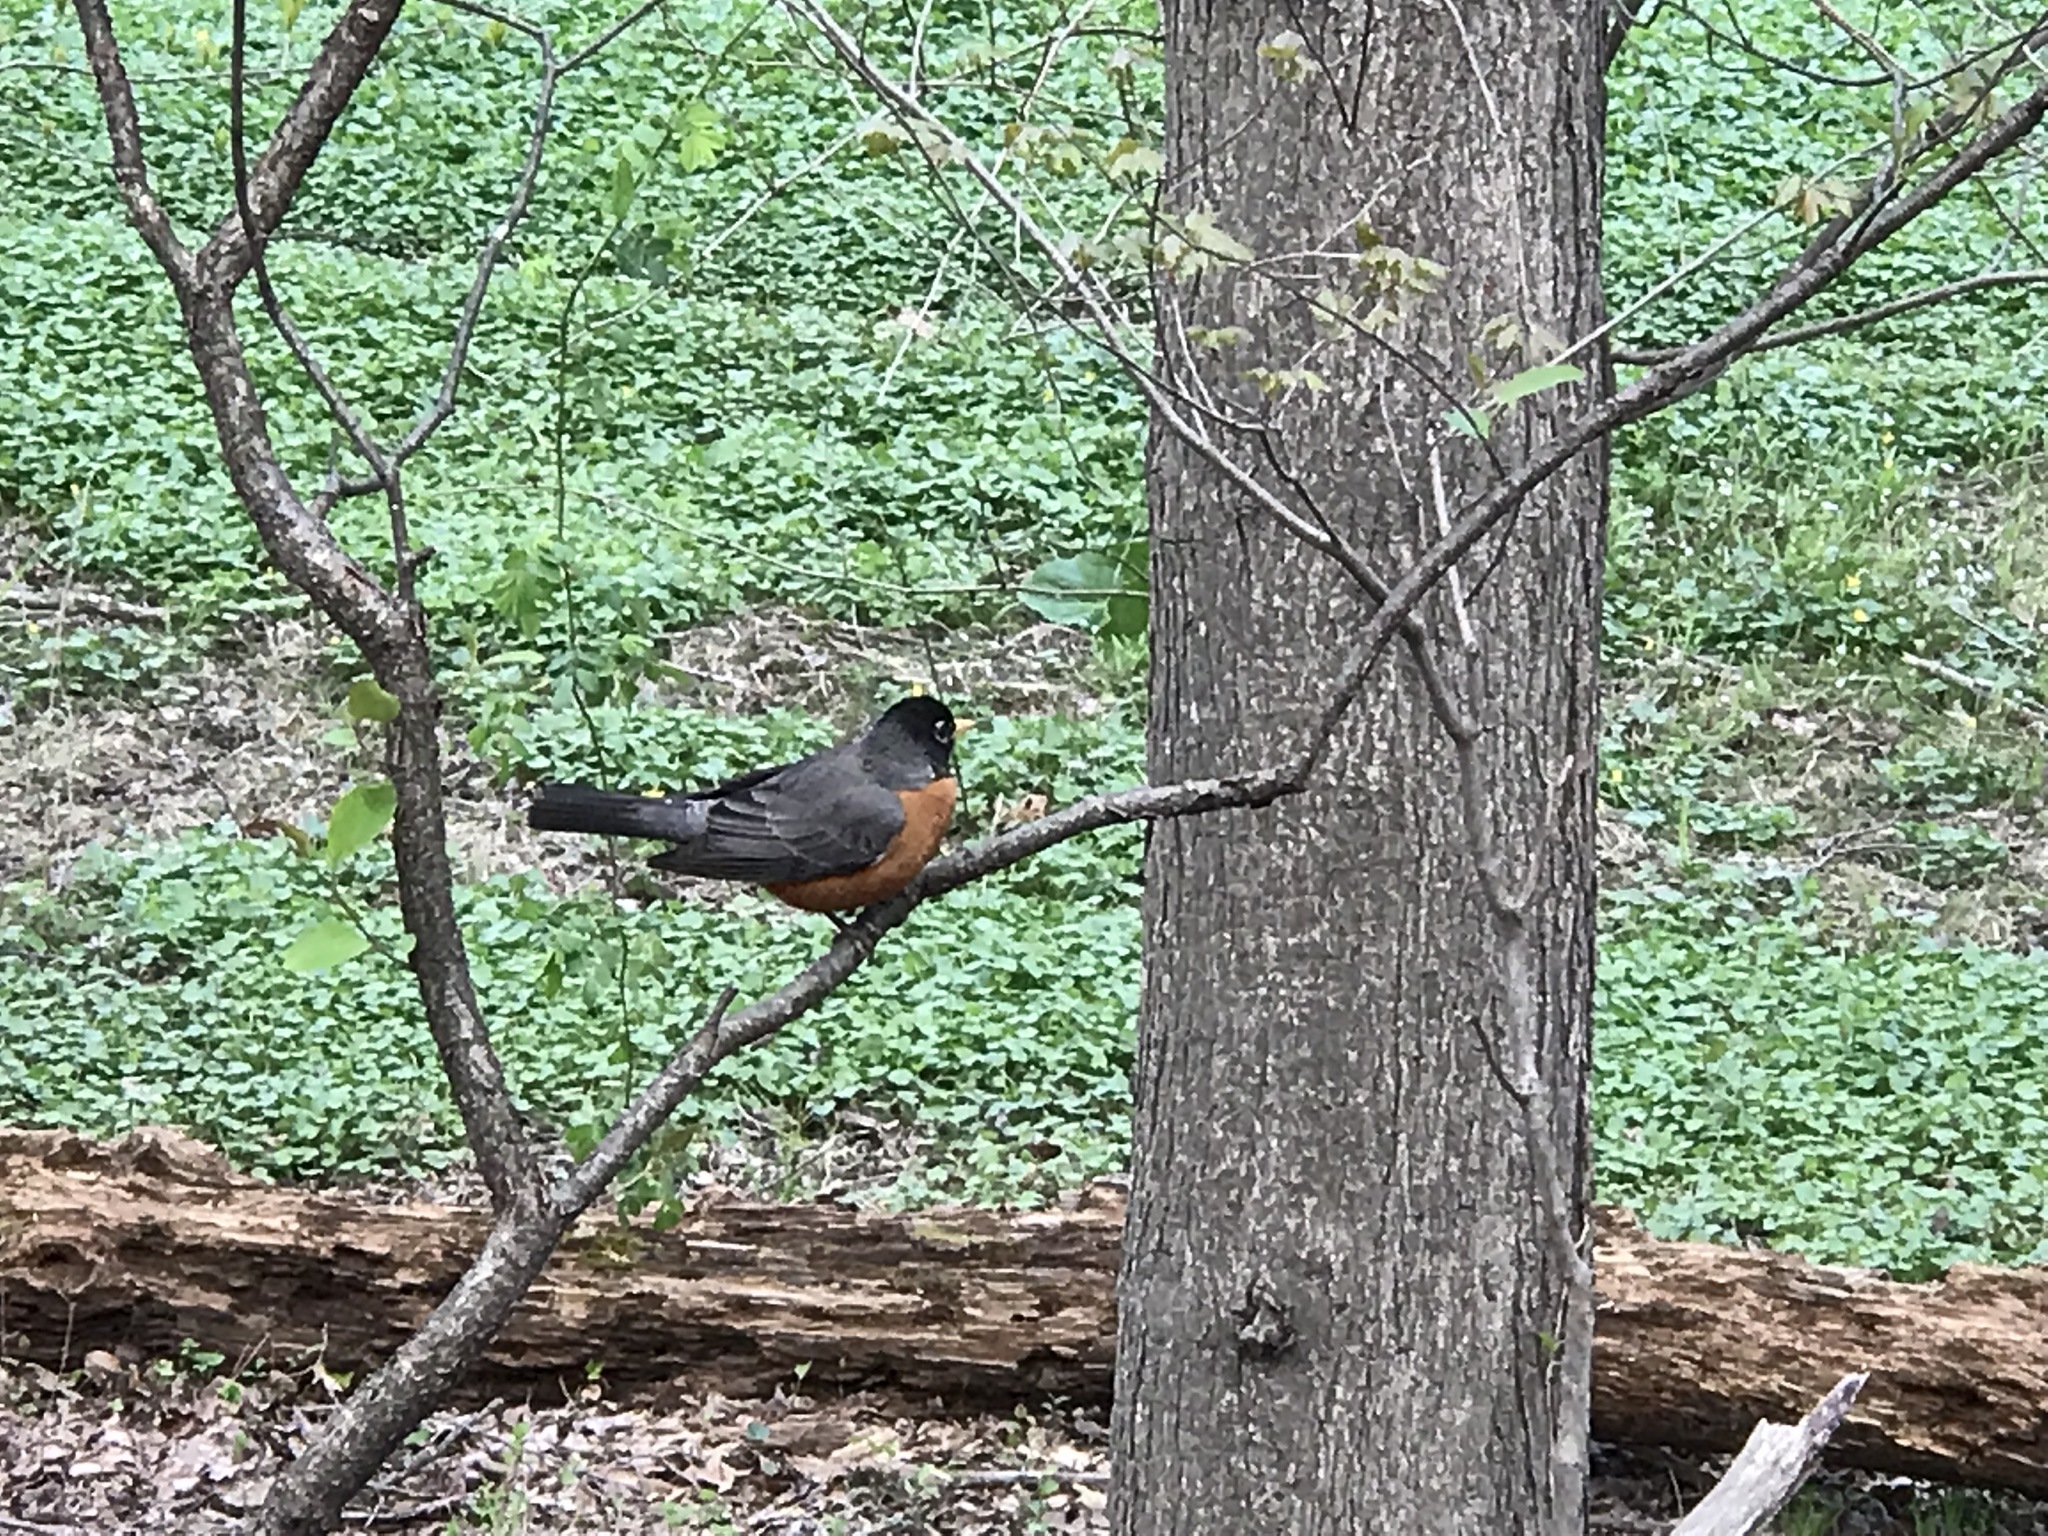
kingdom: Animalia
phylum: Chordata
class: Aves
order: Passeriformes
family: Turdidae
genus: Turdus
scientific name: Turdus migratorius
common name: American robin
